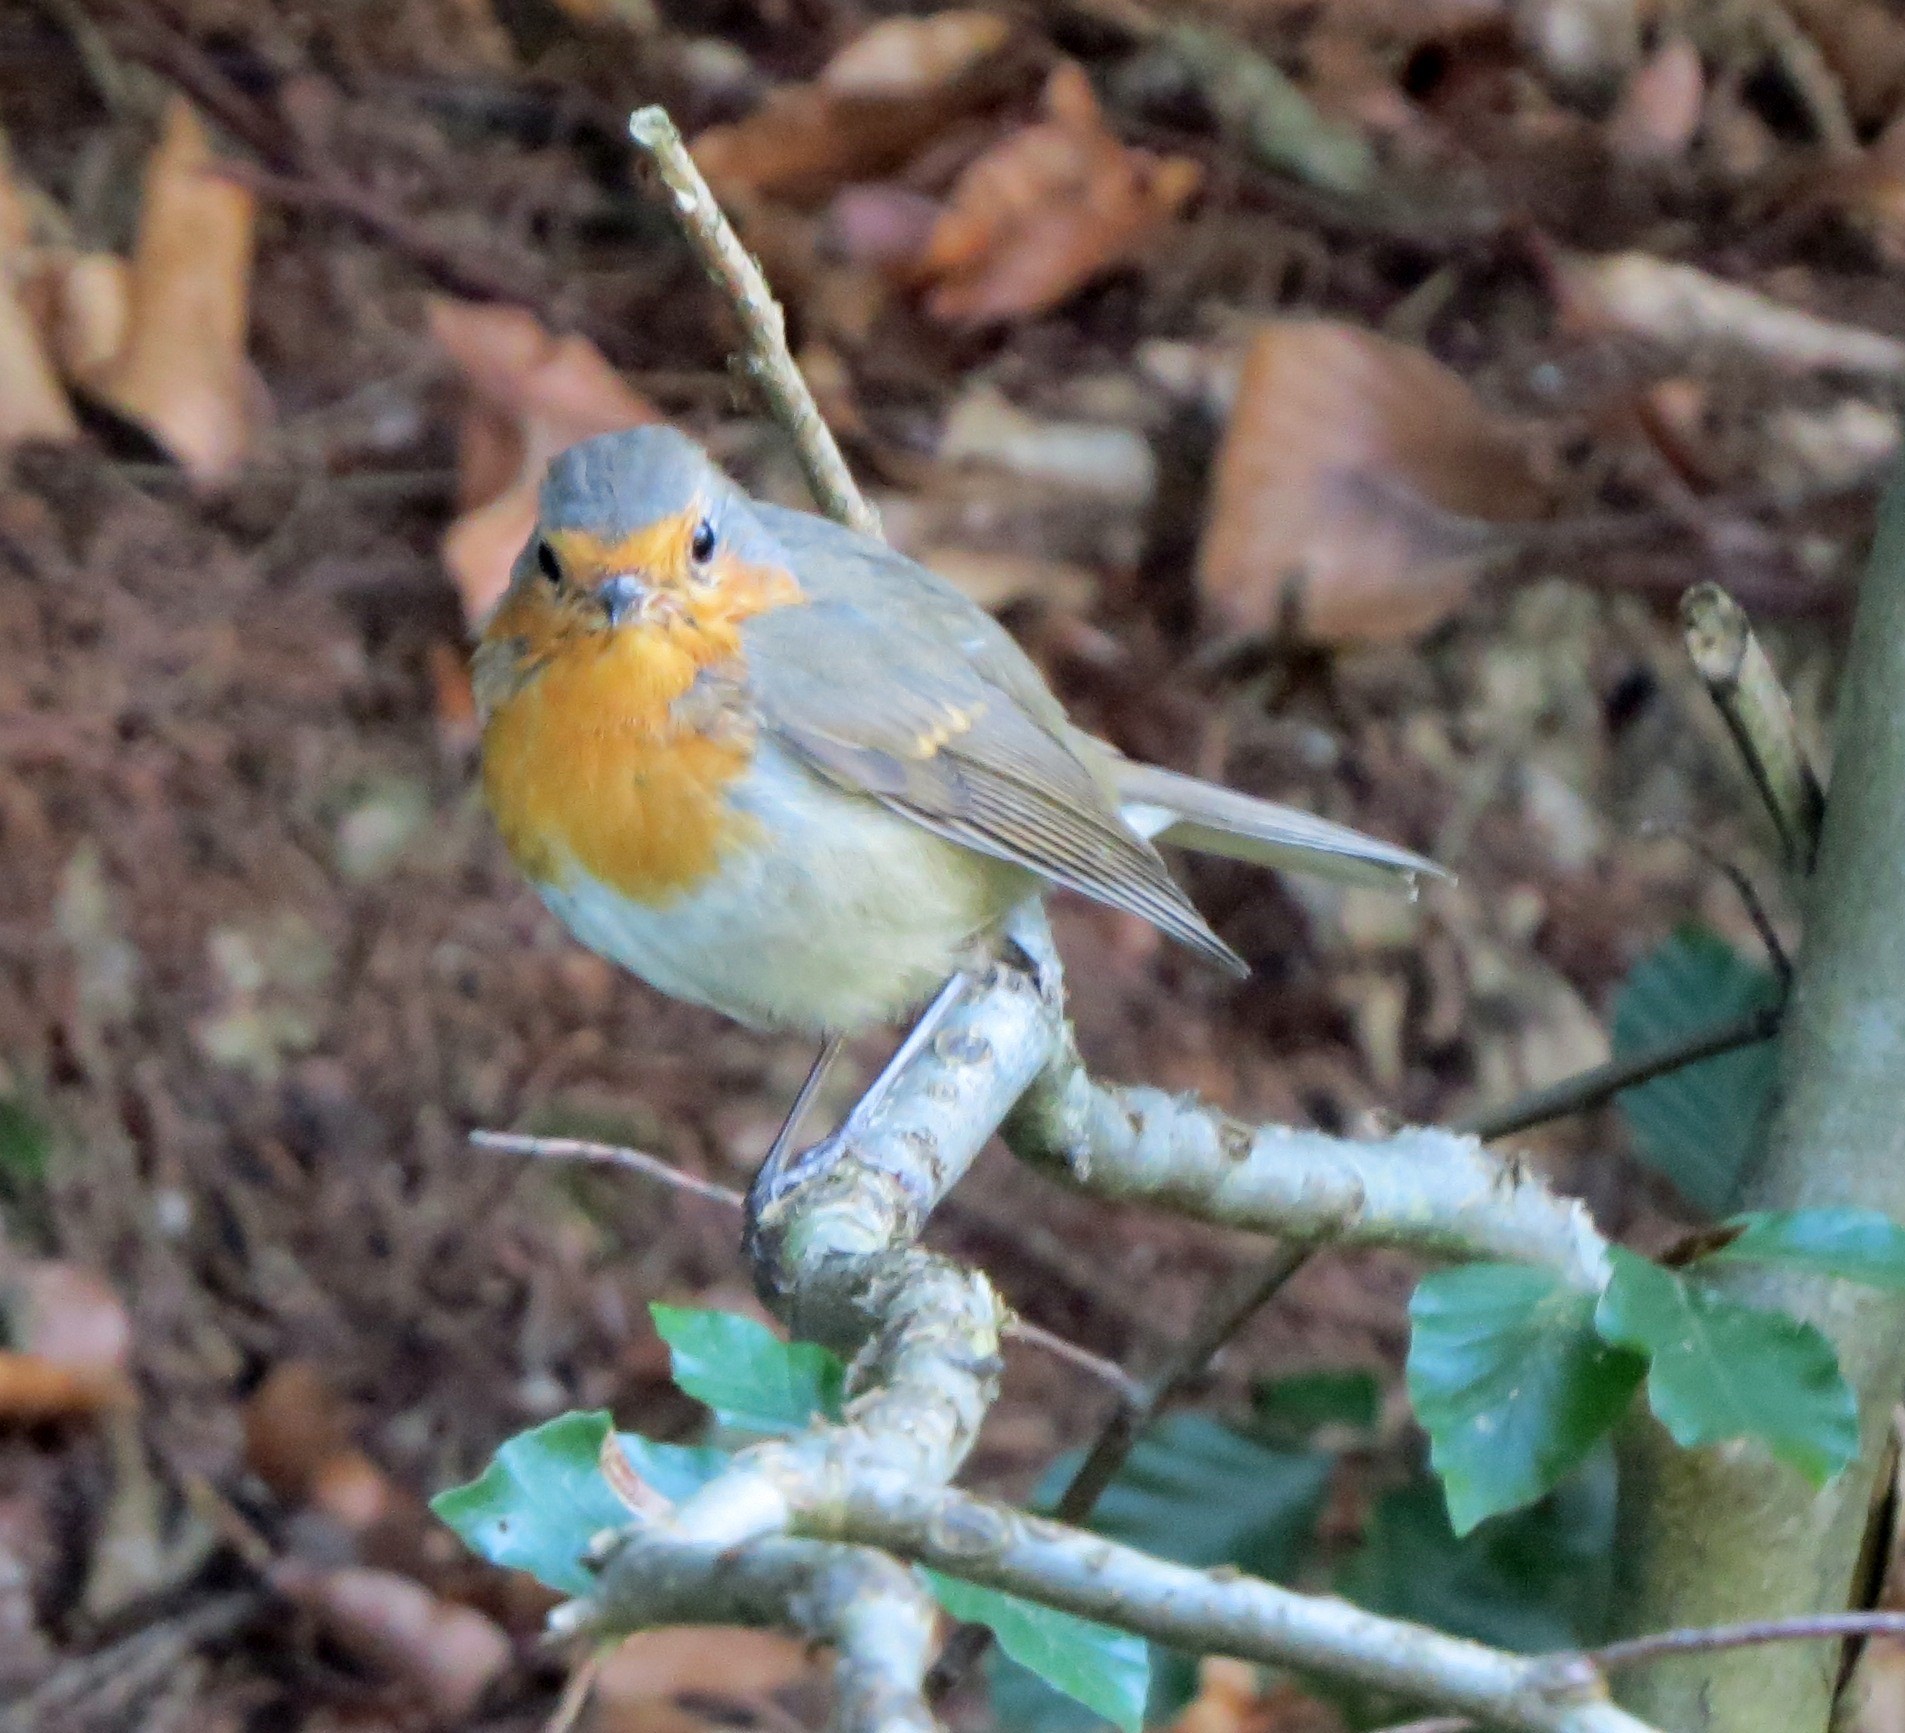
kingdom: Animalia
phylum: Chordata
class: Aves
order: Passeriformes
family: Muscicapidae
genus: Erithacus
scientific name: Erithacus rubecula
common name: European robin
